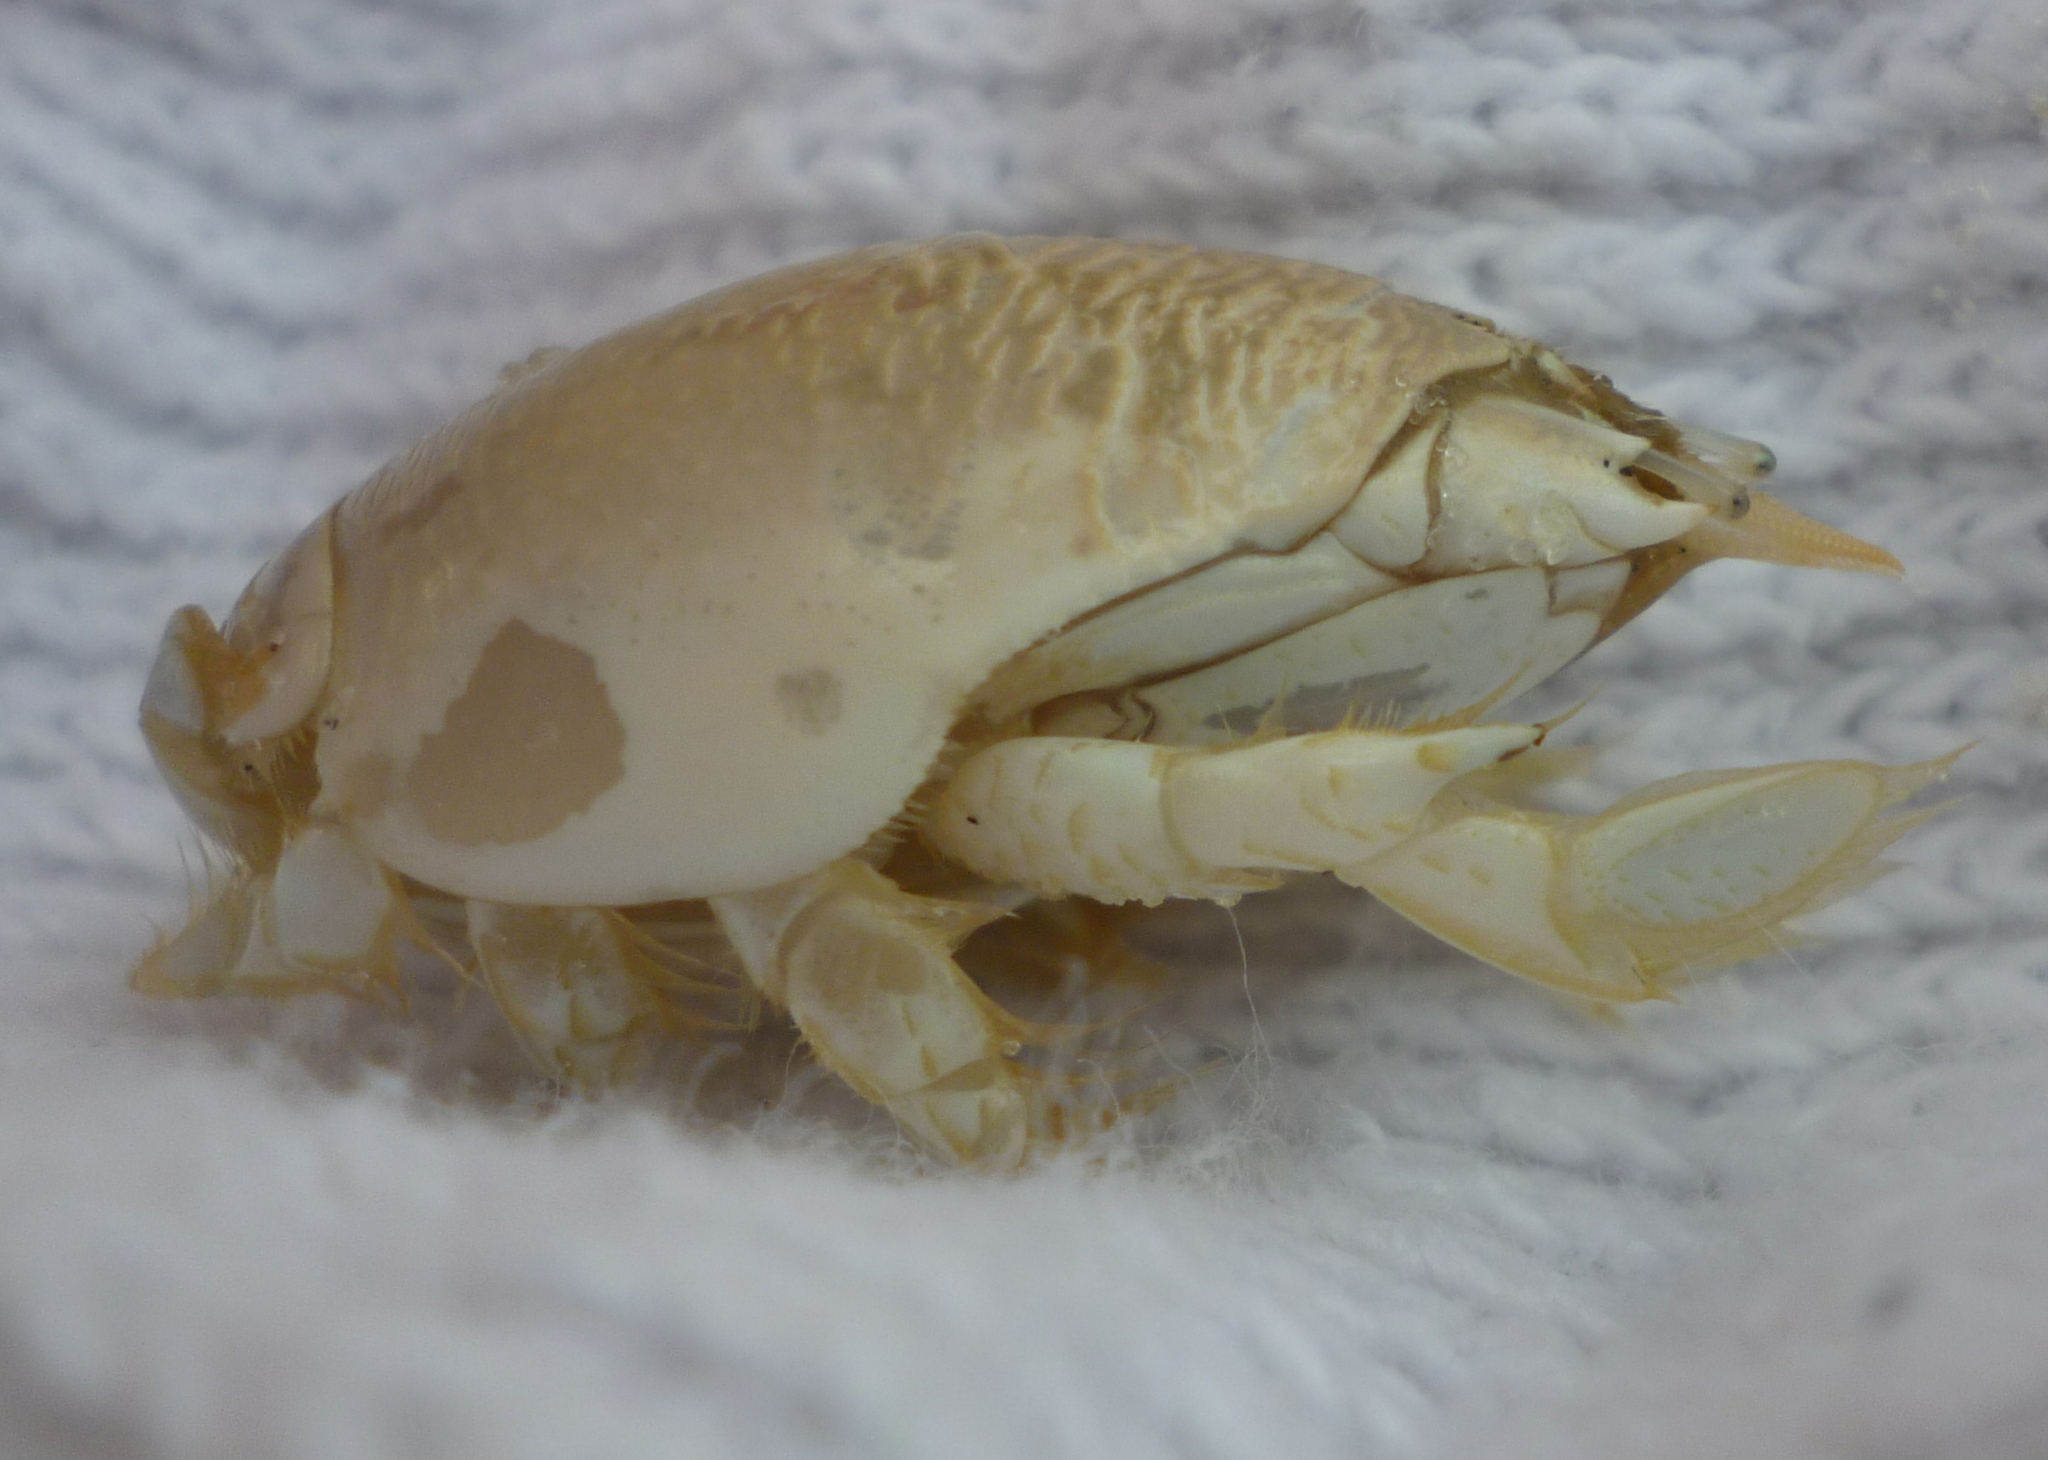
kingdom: Animalia
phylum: Arthropoda
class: Malacostraca
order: Decapoda
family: Hippidae
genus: Emerita
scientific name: Emerita talpoida
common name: Atlantic sand crab
